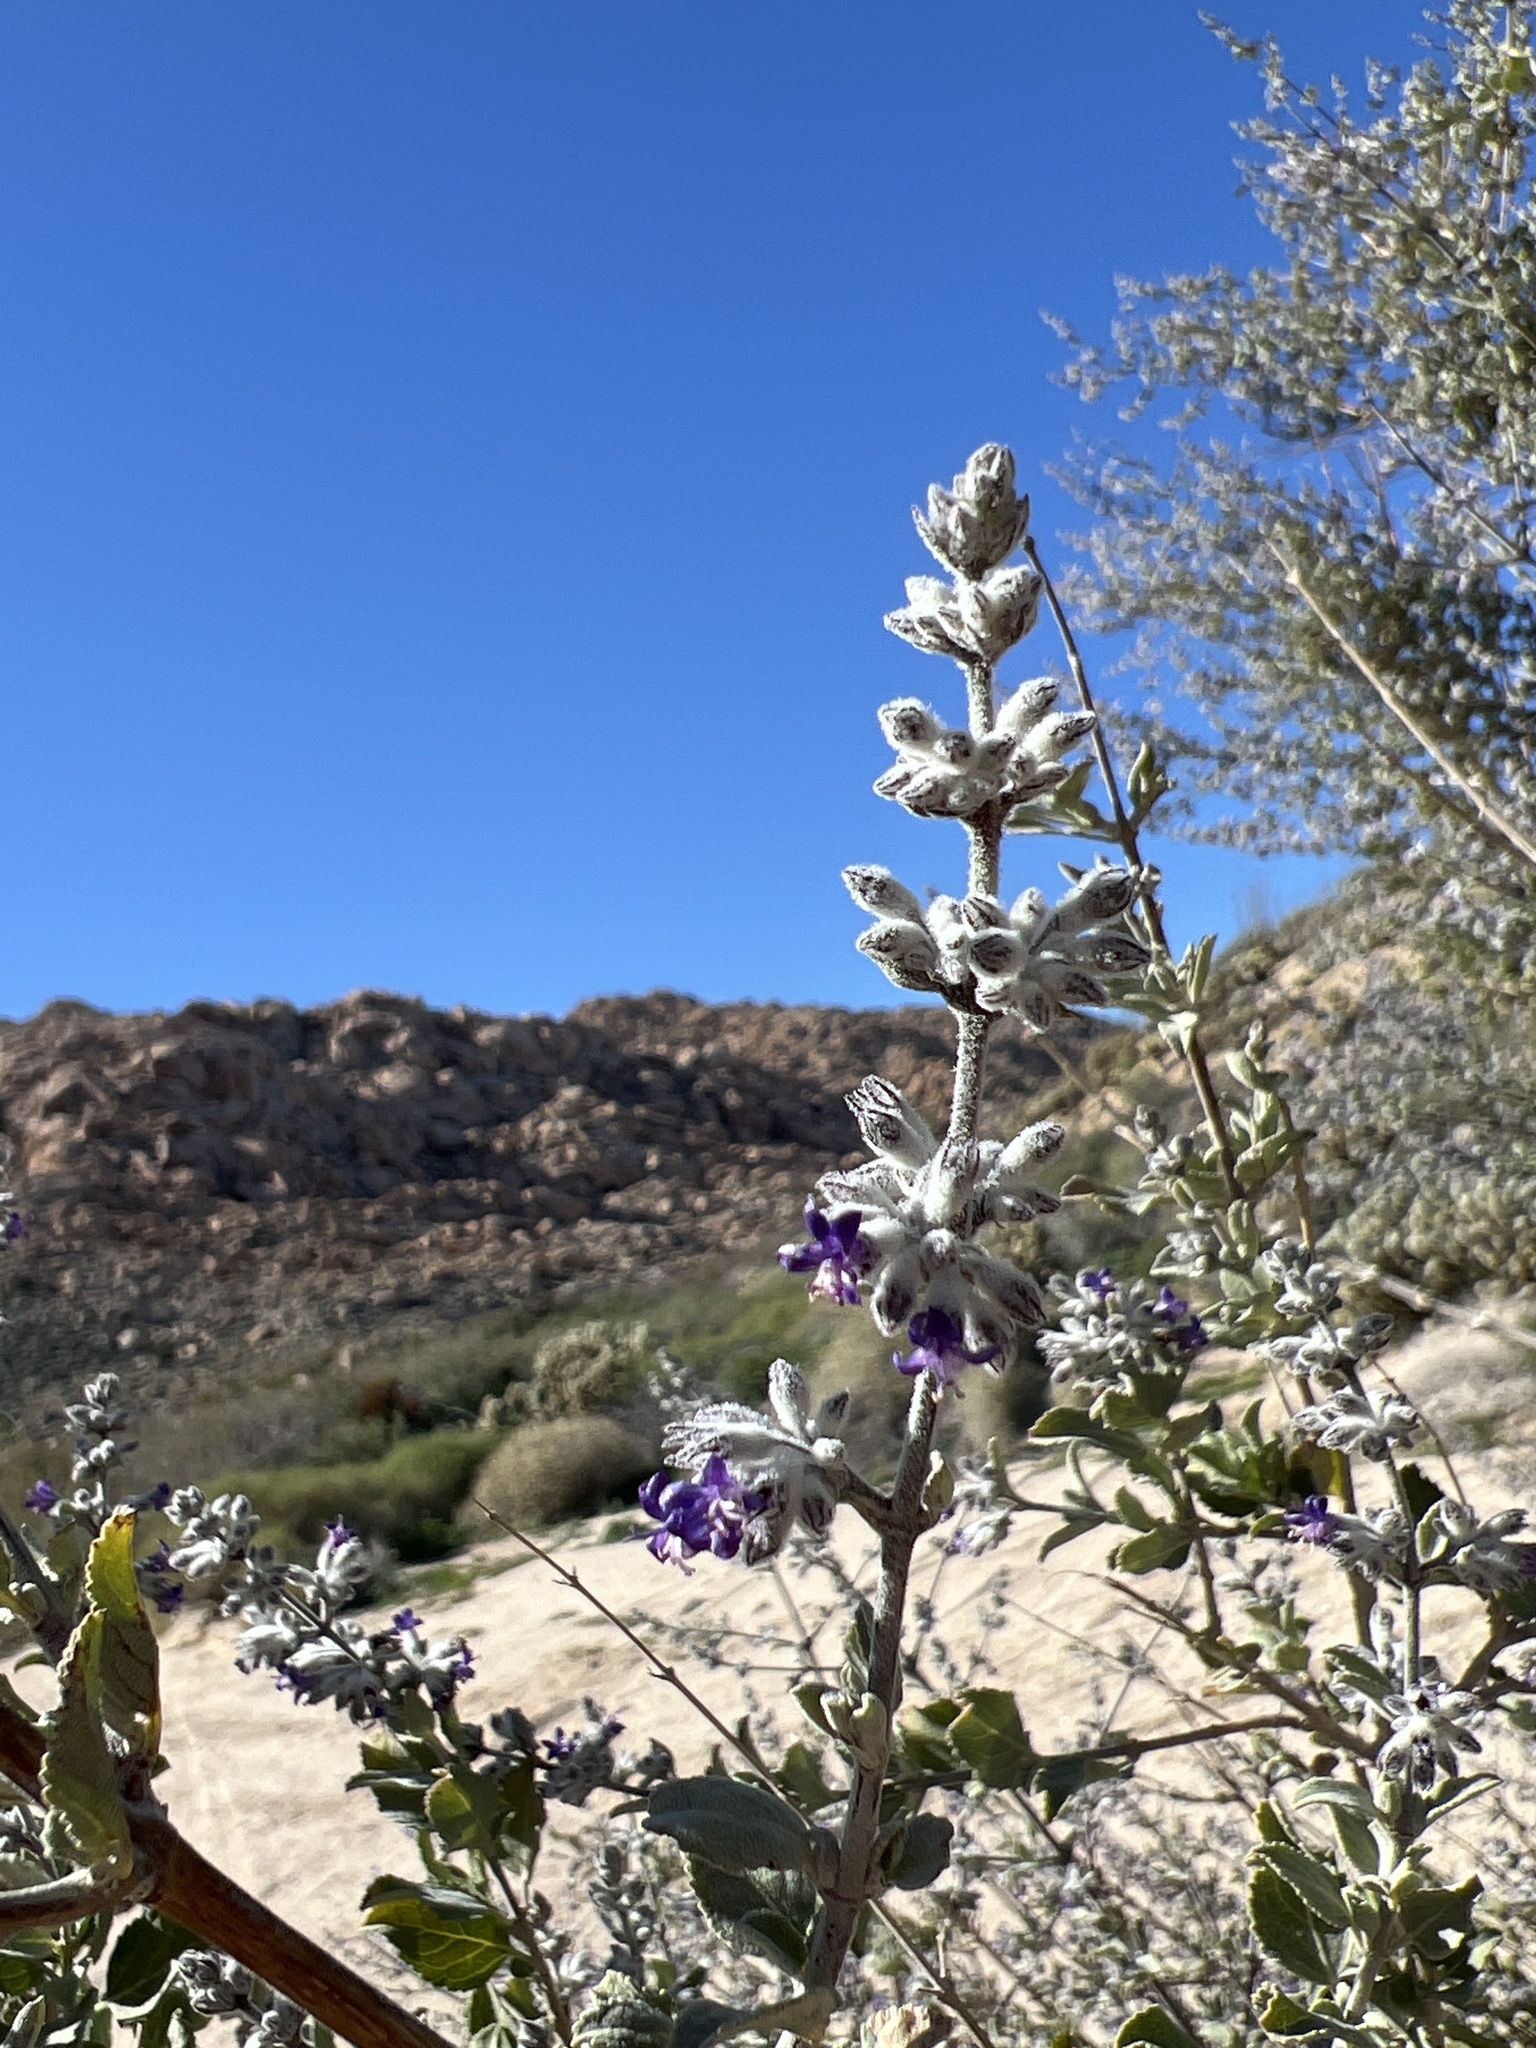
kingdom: Plantae
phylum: Tracheophyta
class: Magnoliopsida
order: Lamiales
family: Lamiaceae
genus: Condea
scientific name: Condea emoryi
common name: Chia
